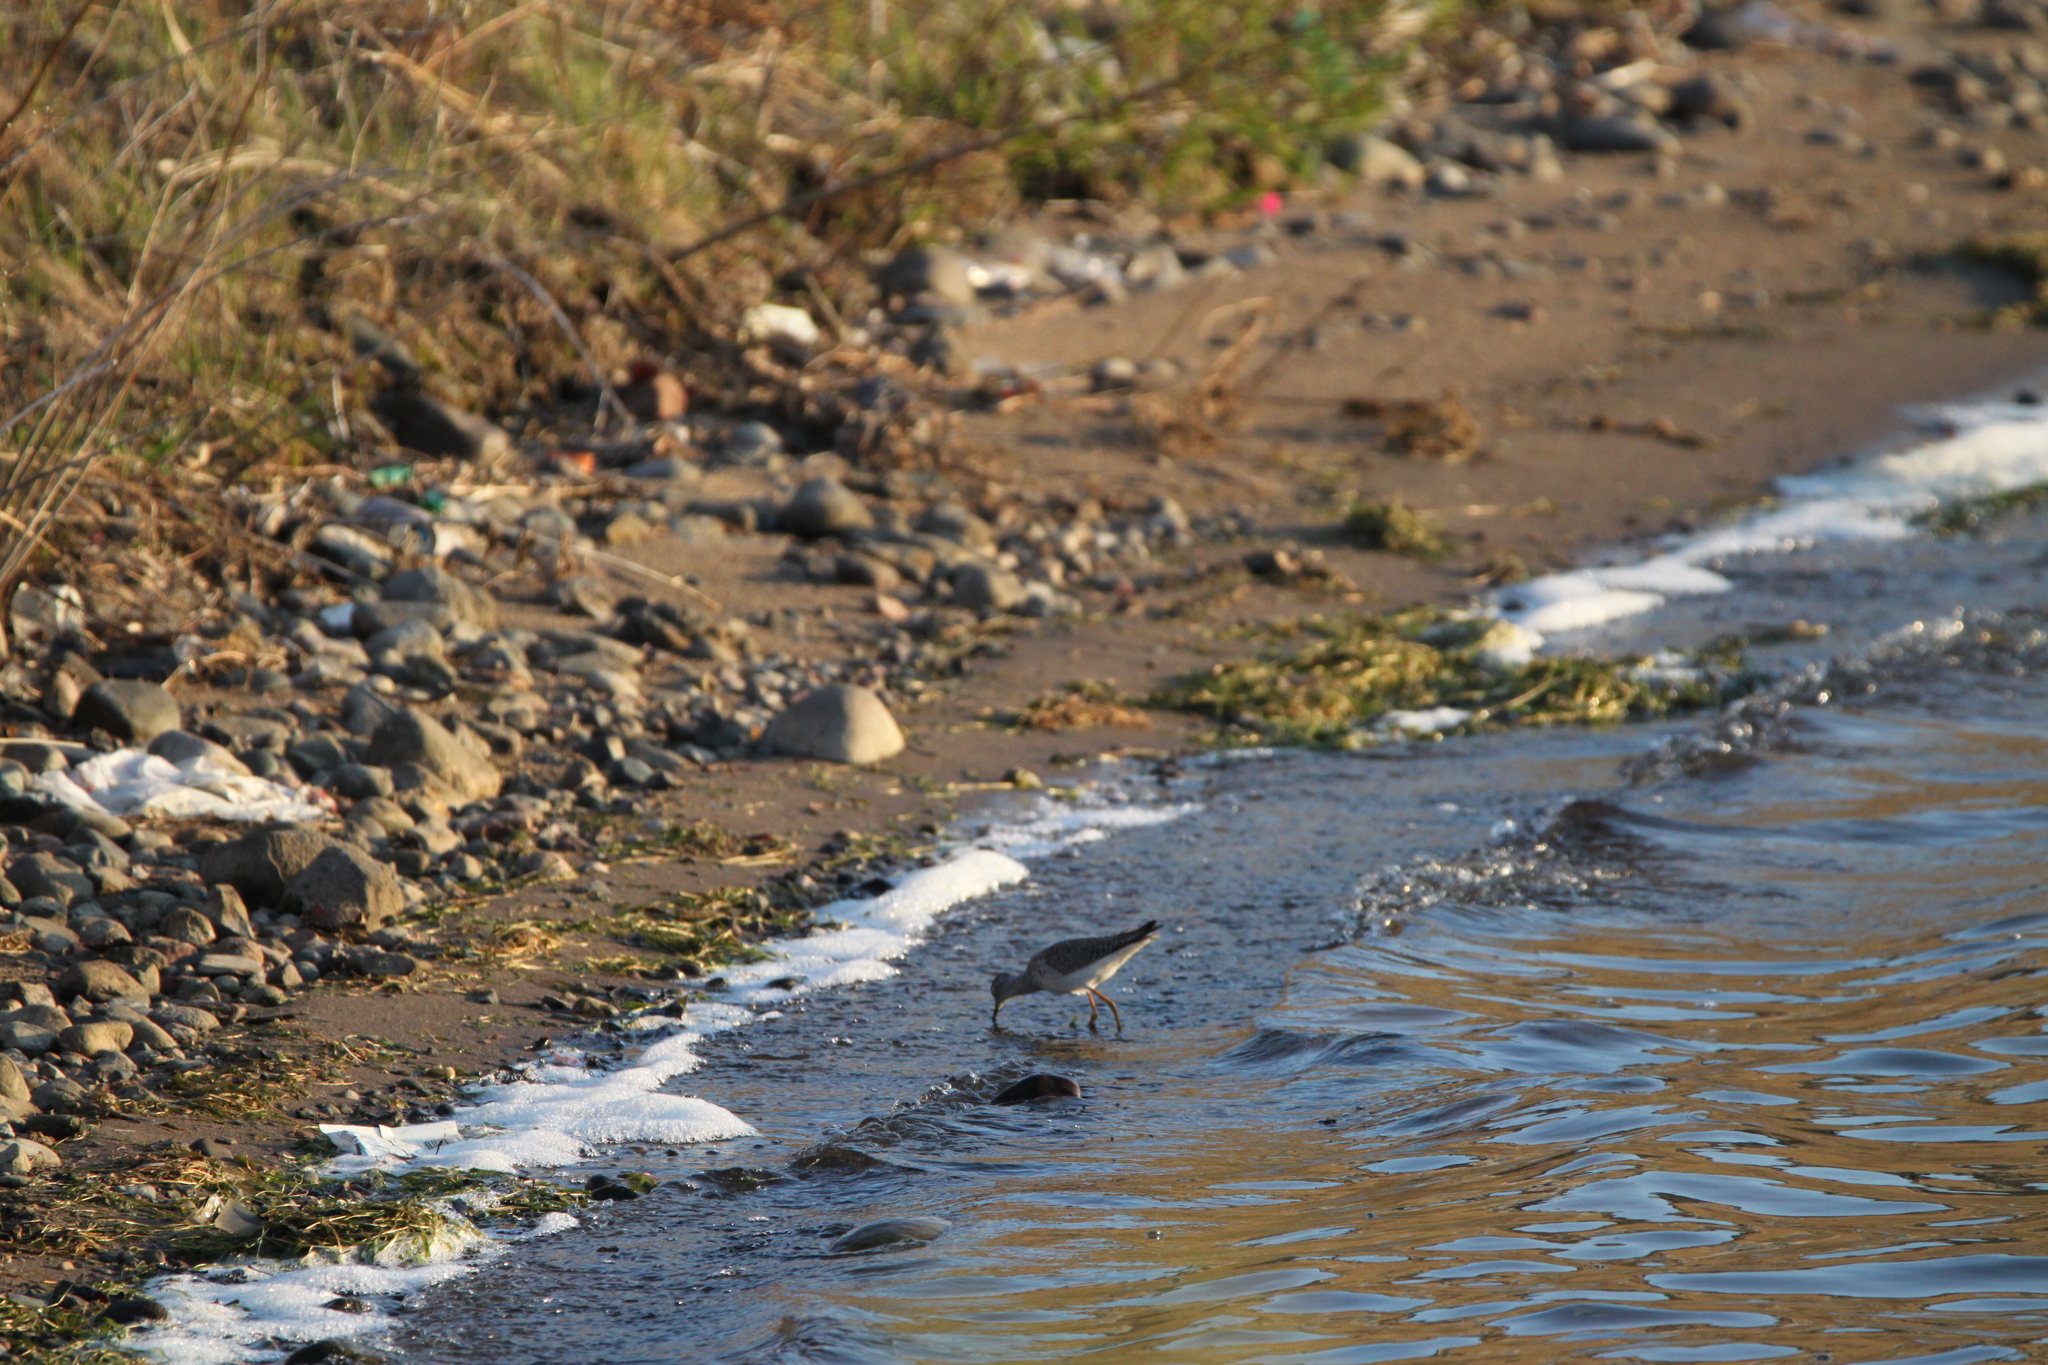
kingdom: Animalia
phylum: Chordata
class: Aves
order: Charadriiformes
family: Scolopacidae
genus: Tringa
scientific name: Tringa flavipes
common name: Lesser yellowlegs
